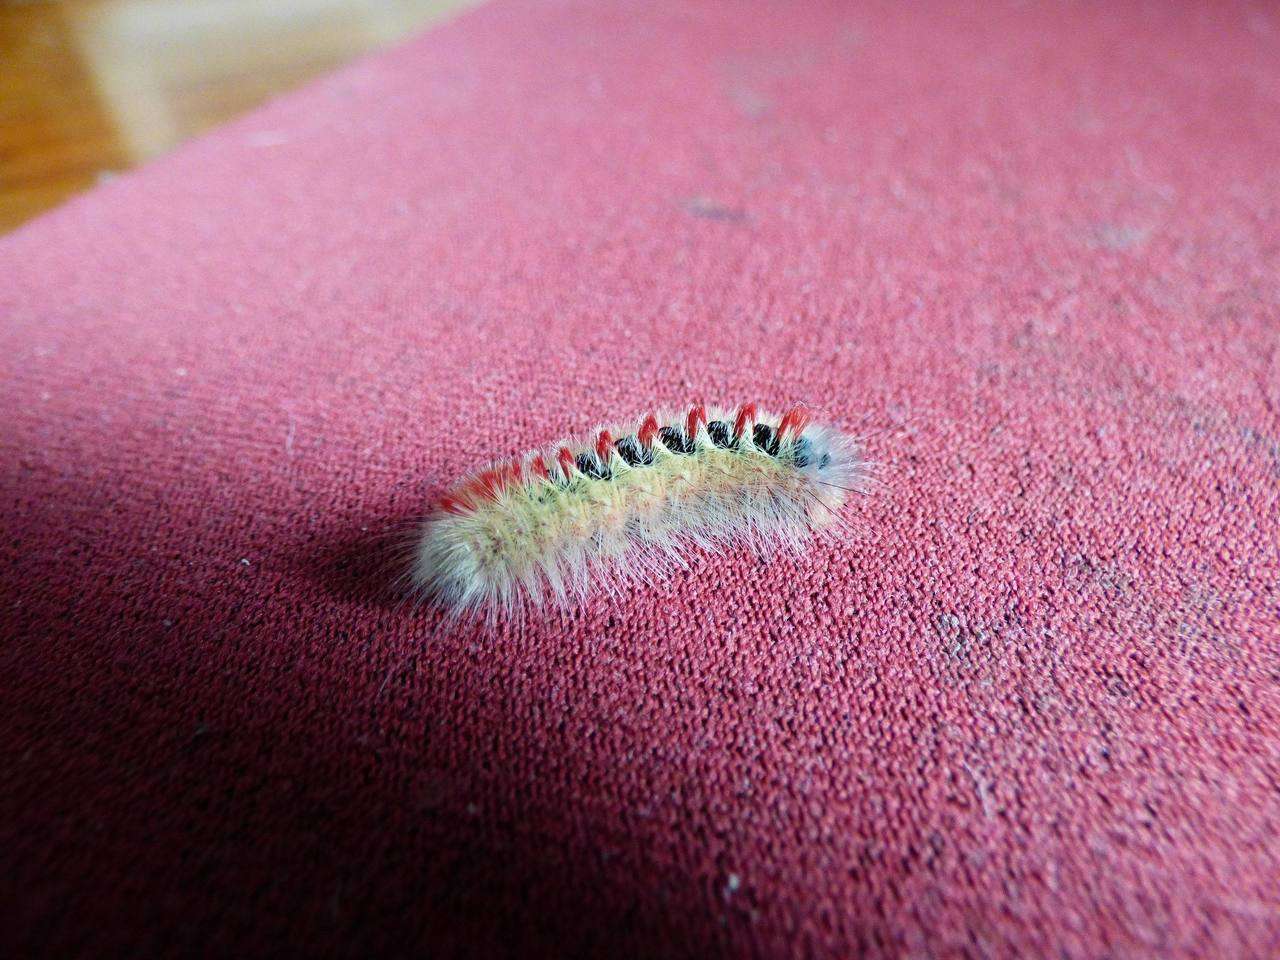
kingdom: Animalia
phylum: Arthropoda
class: Insecta
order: Lepidoptera
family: Notodontidae
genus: Trichiocercus
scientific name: Trichiocercus sparshalli
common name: Long-tailed satin
